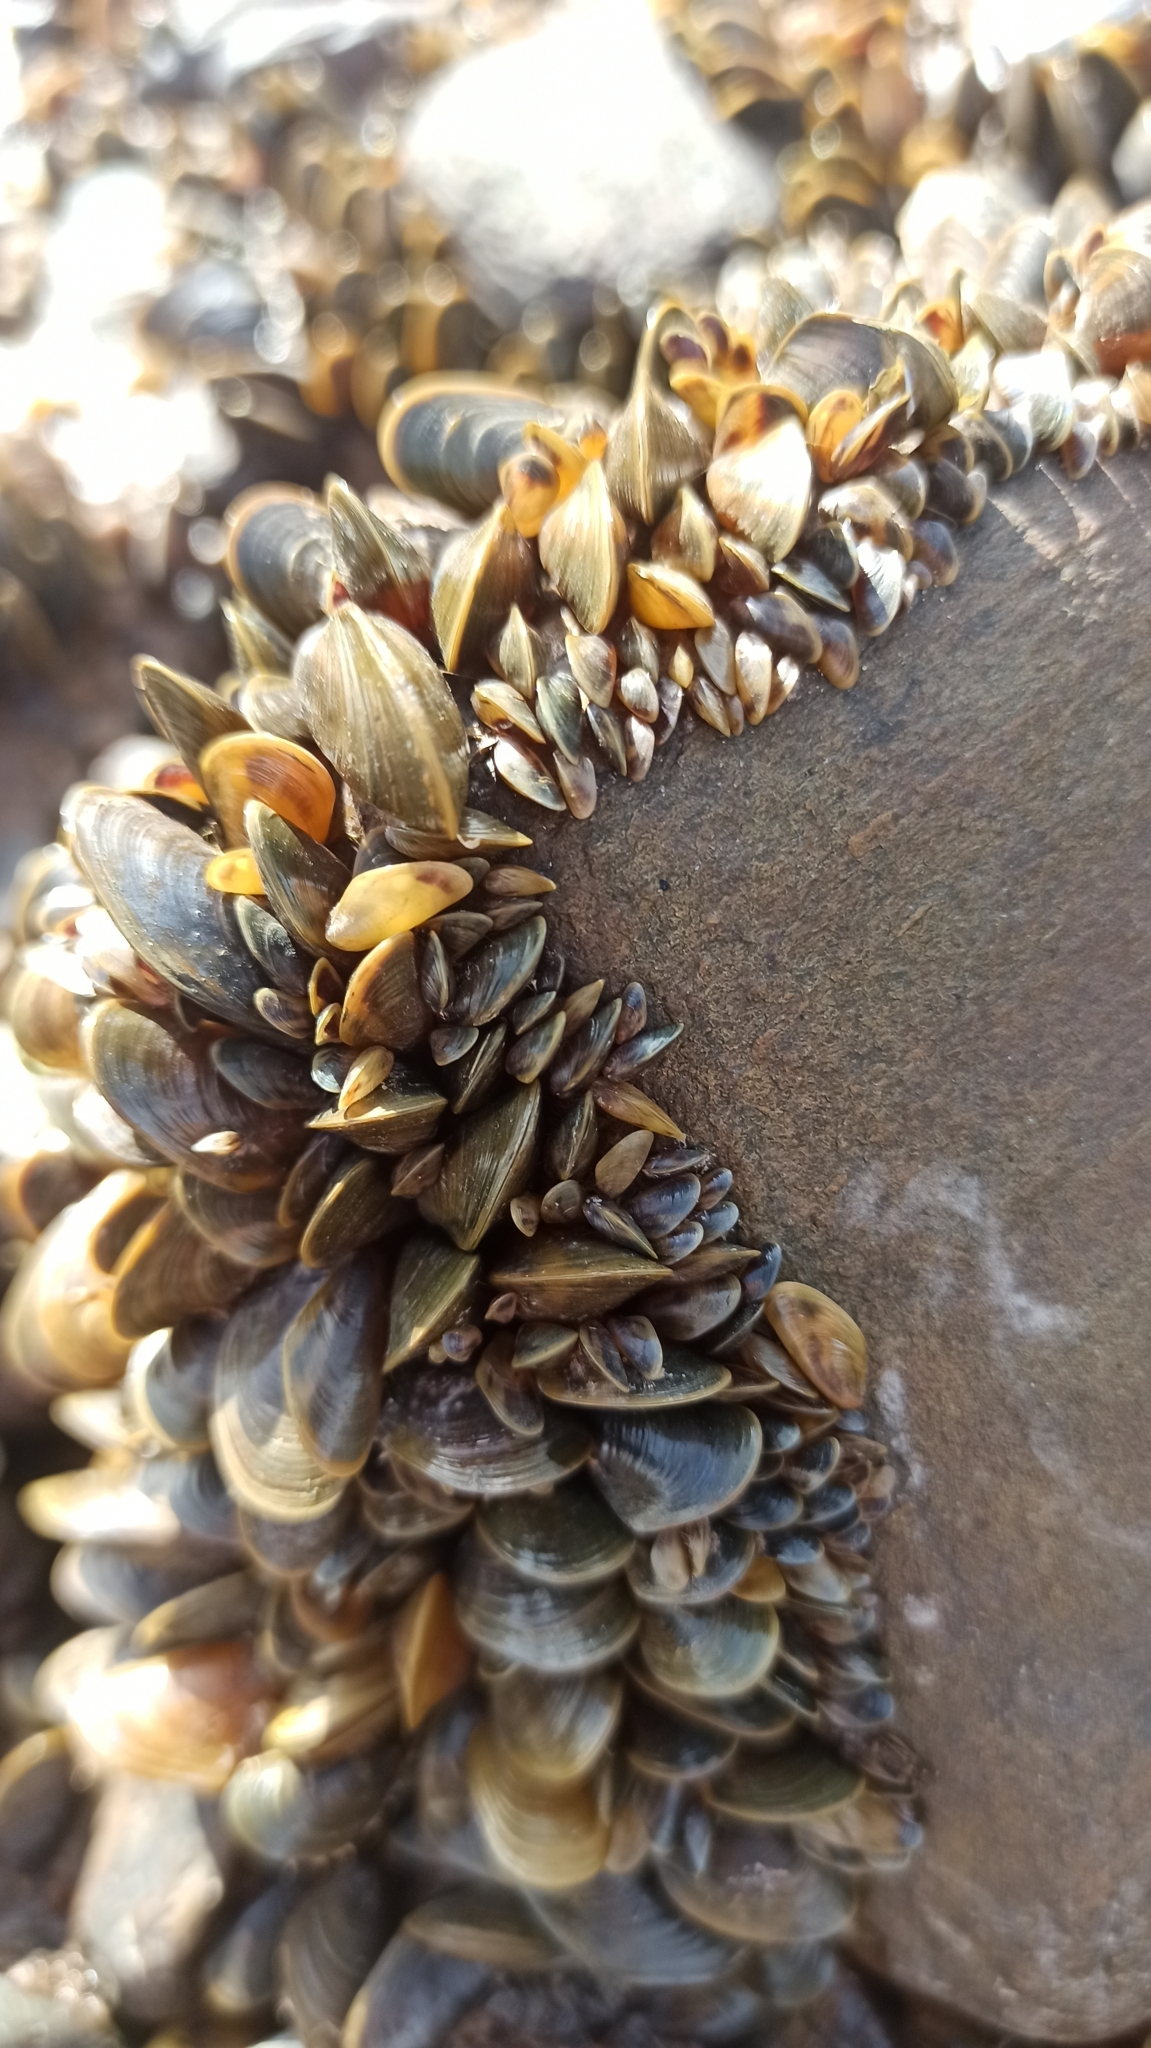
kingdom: Animalia
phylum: Mollusca
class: Bivalvia
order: Mytilida
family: Mytilidae
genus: Limnoperna
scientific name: Limnoperna fortunei
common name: Golden mussel
